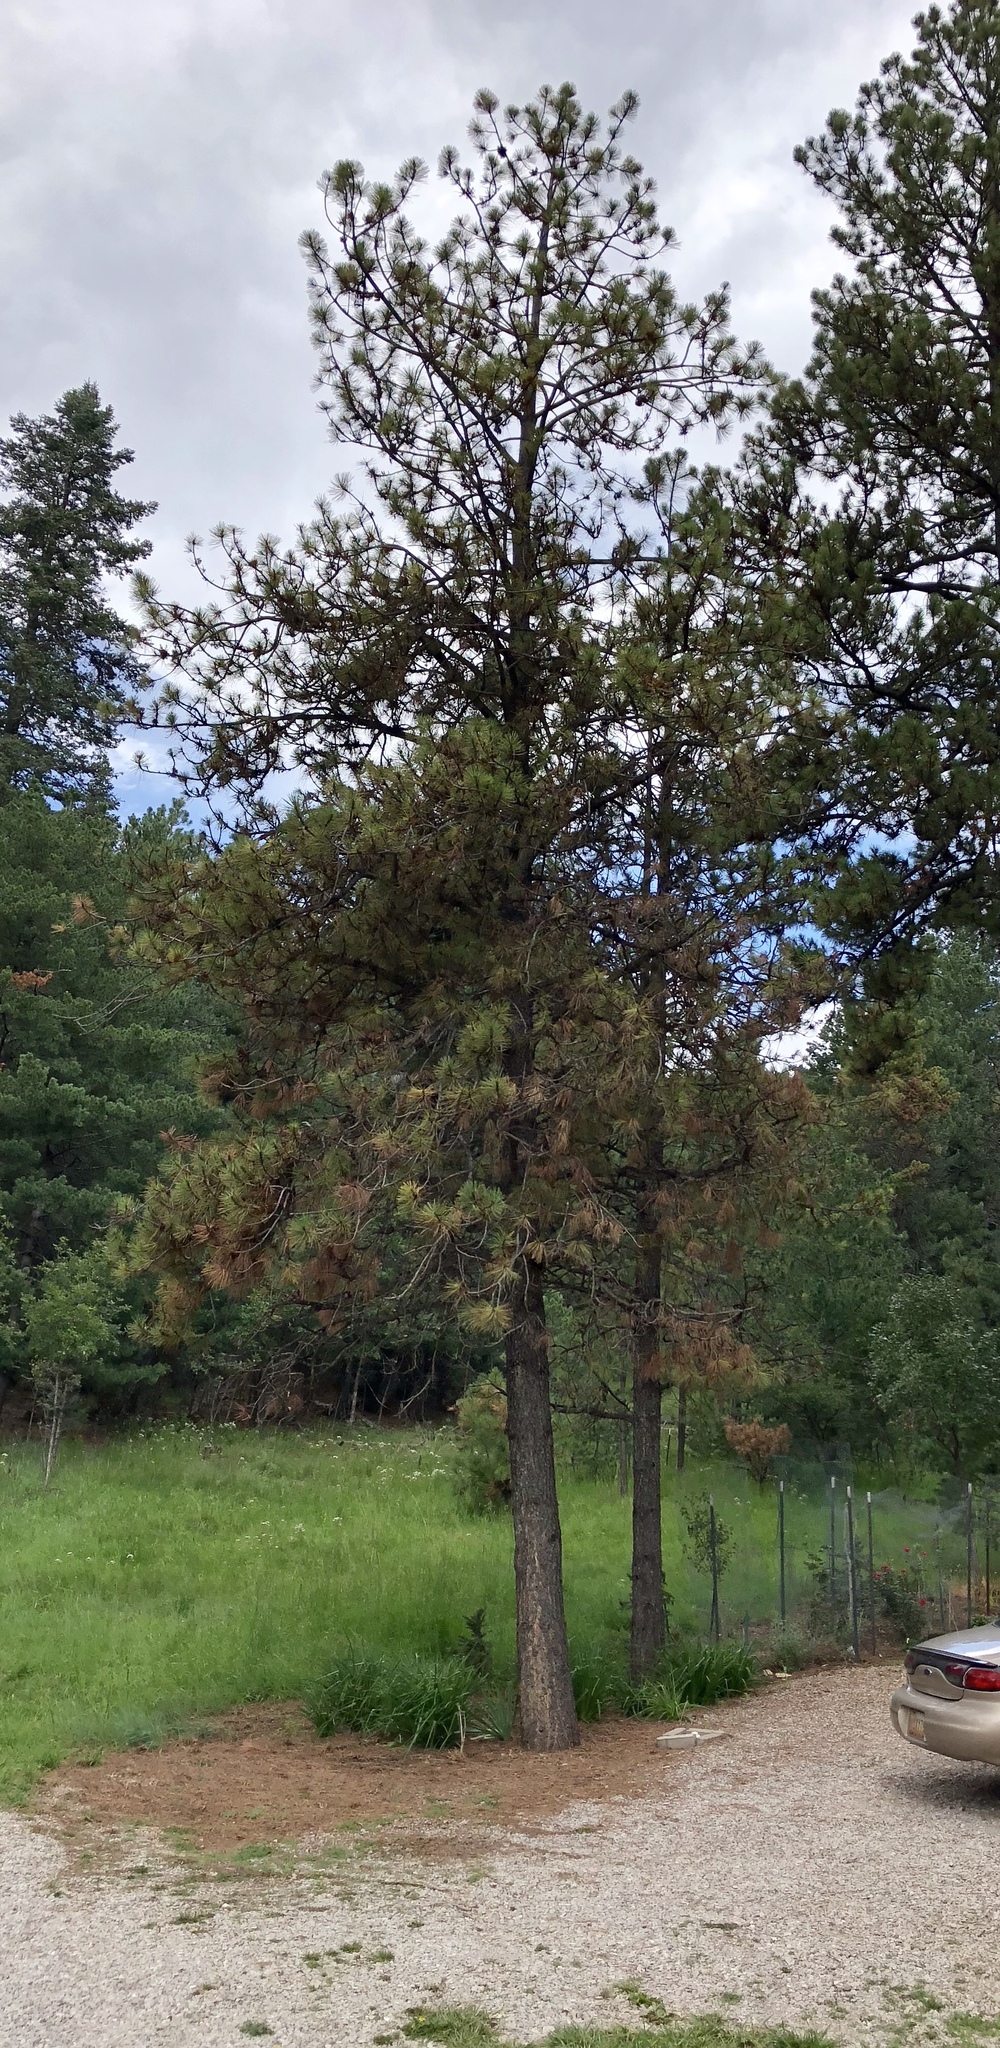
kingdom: Plantae
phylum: Tracheophyta
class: Pinopsida
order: Pinales
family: Pinaceae
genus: Pinus
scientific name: Pinus ponderosa
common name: Western yellow-pine
